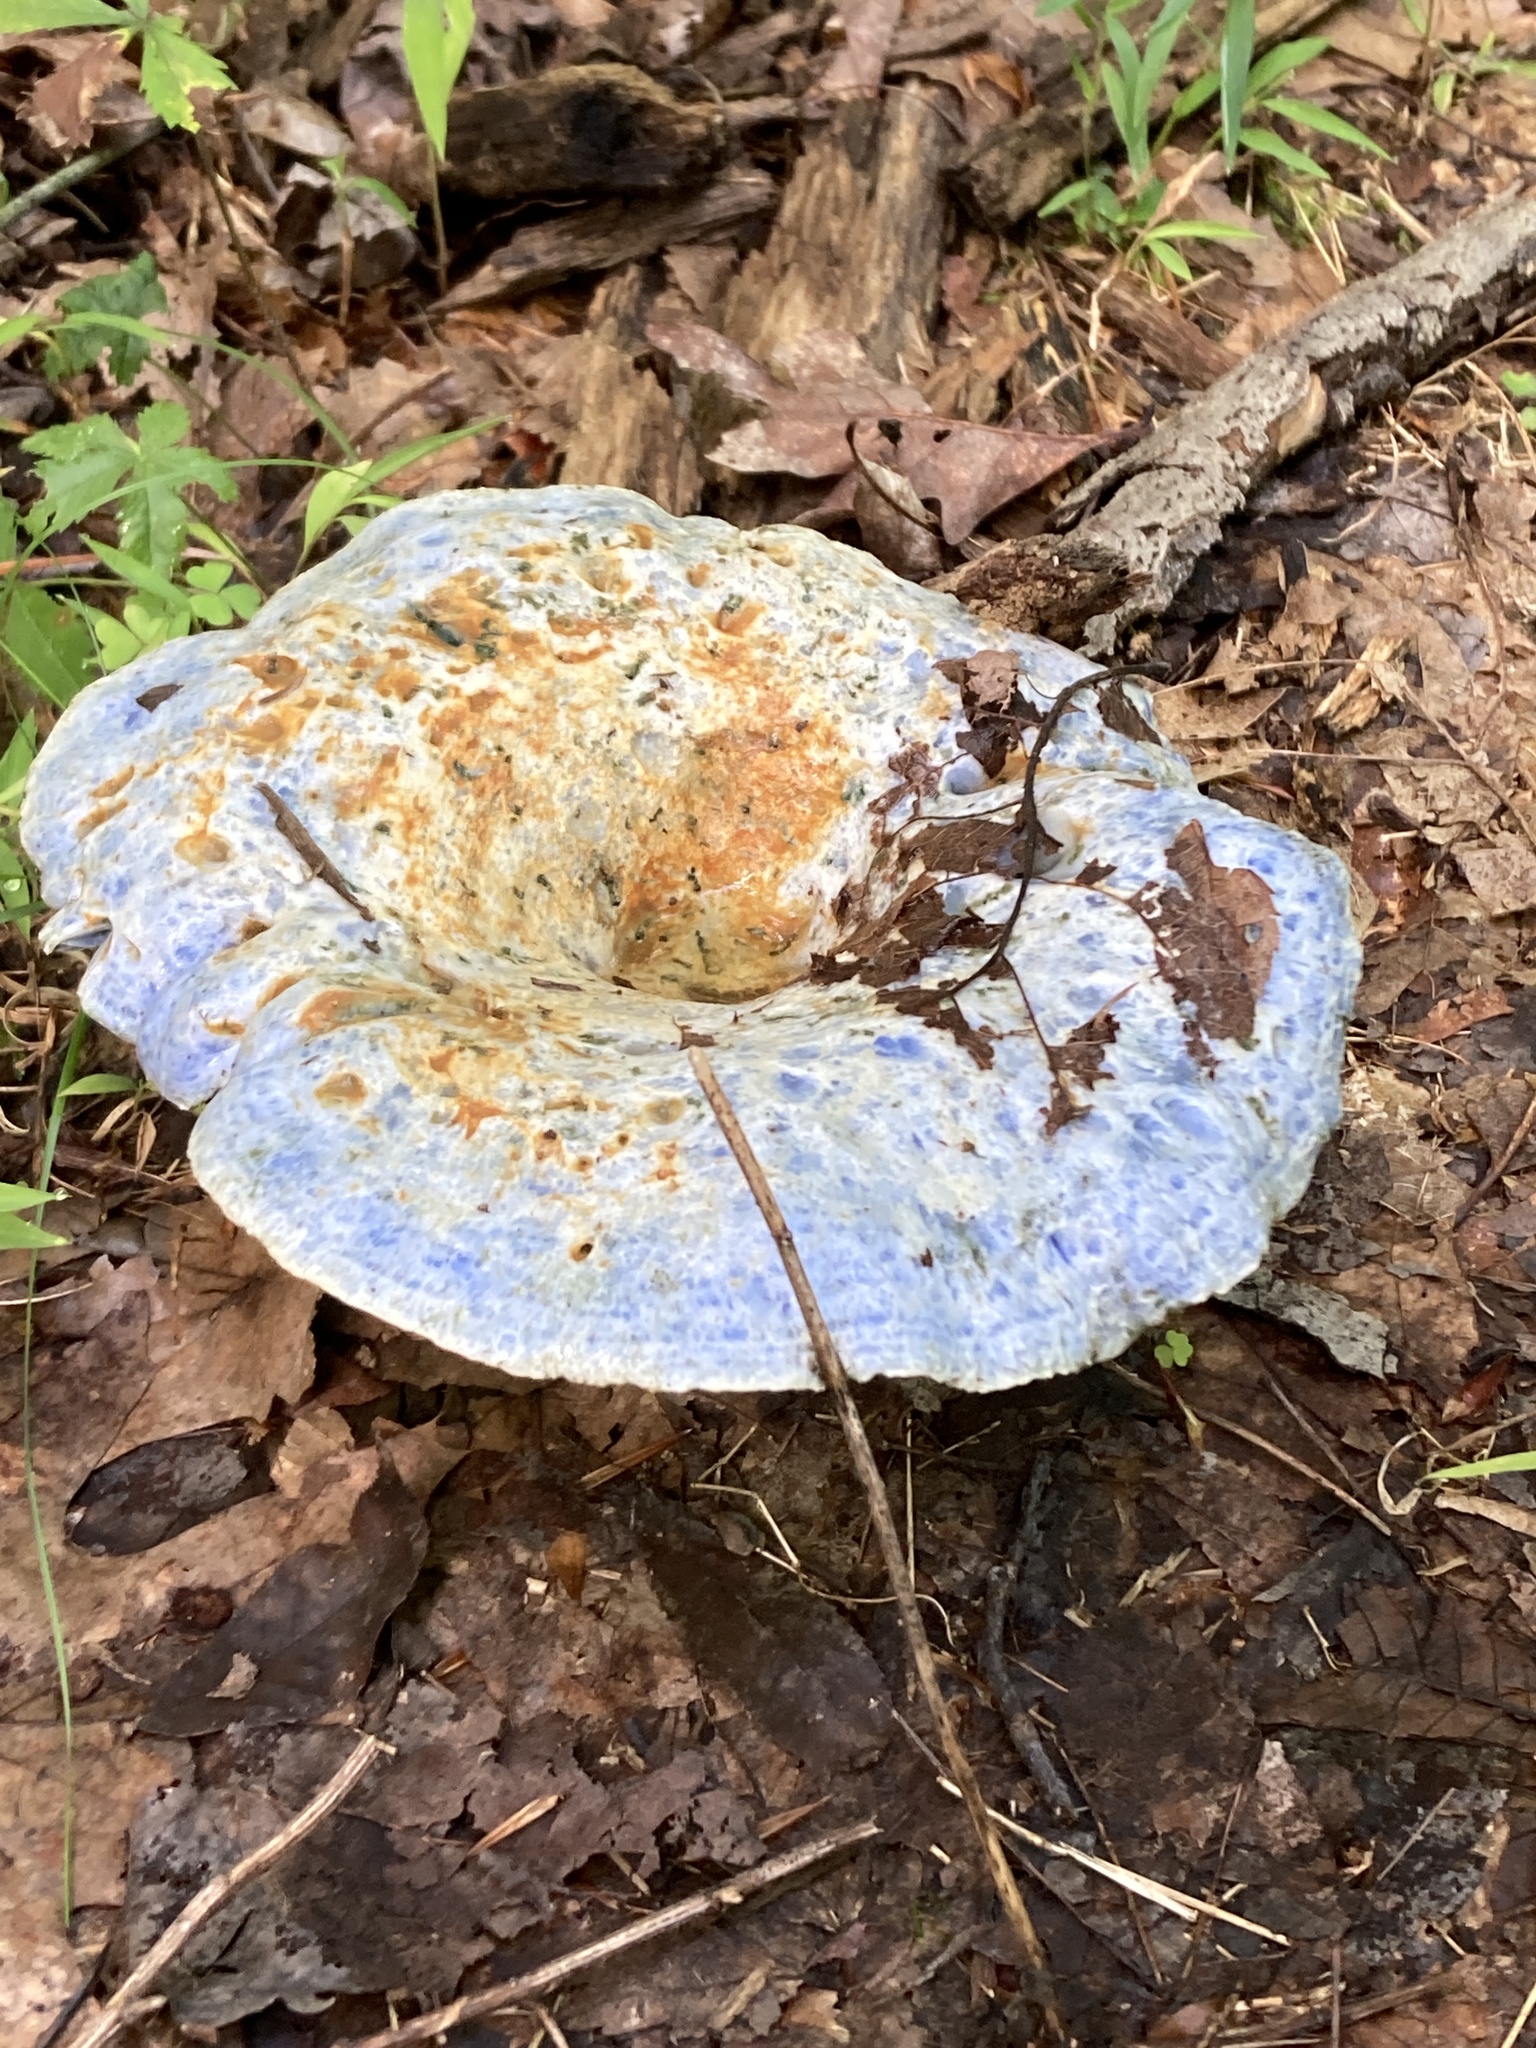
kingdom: Fungi
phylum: Basidiomycota
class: Agaricomycetes
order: Russulales
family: Russulaceae
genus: Lactarius
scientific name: Lactarius indigo
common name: Indigo milk cap
